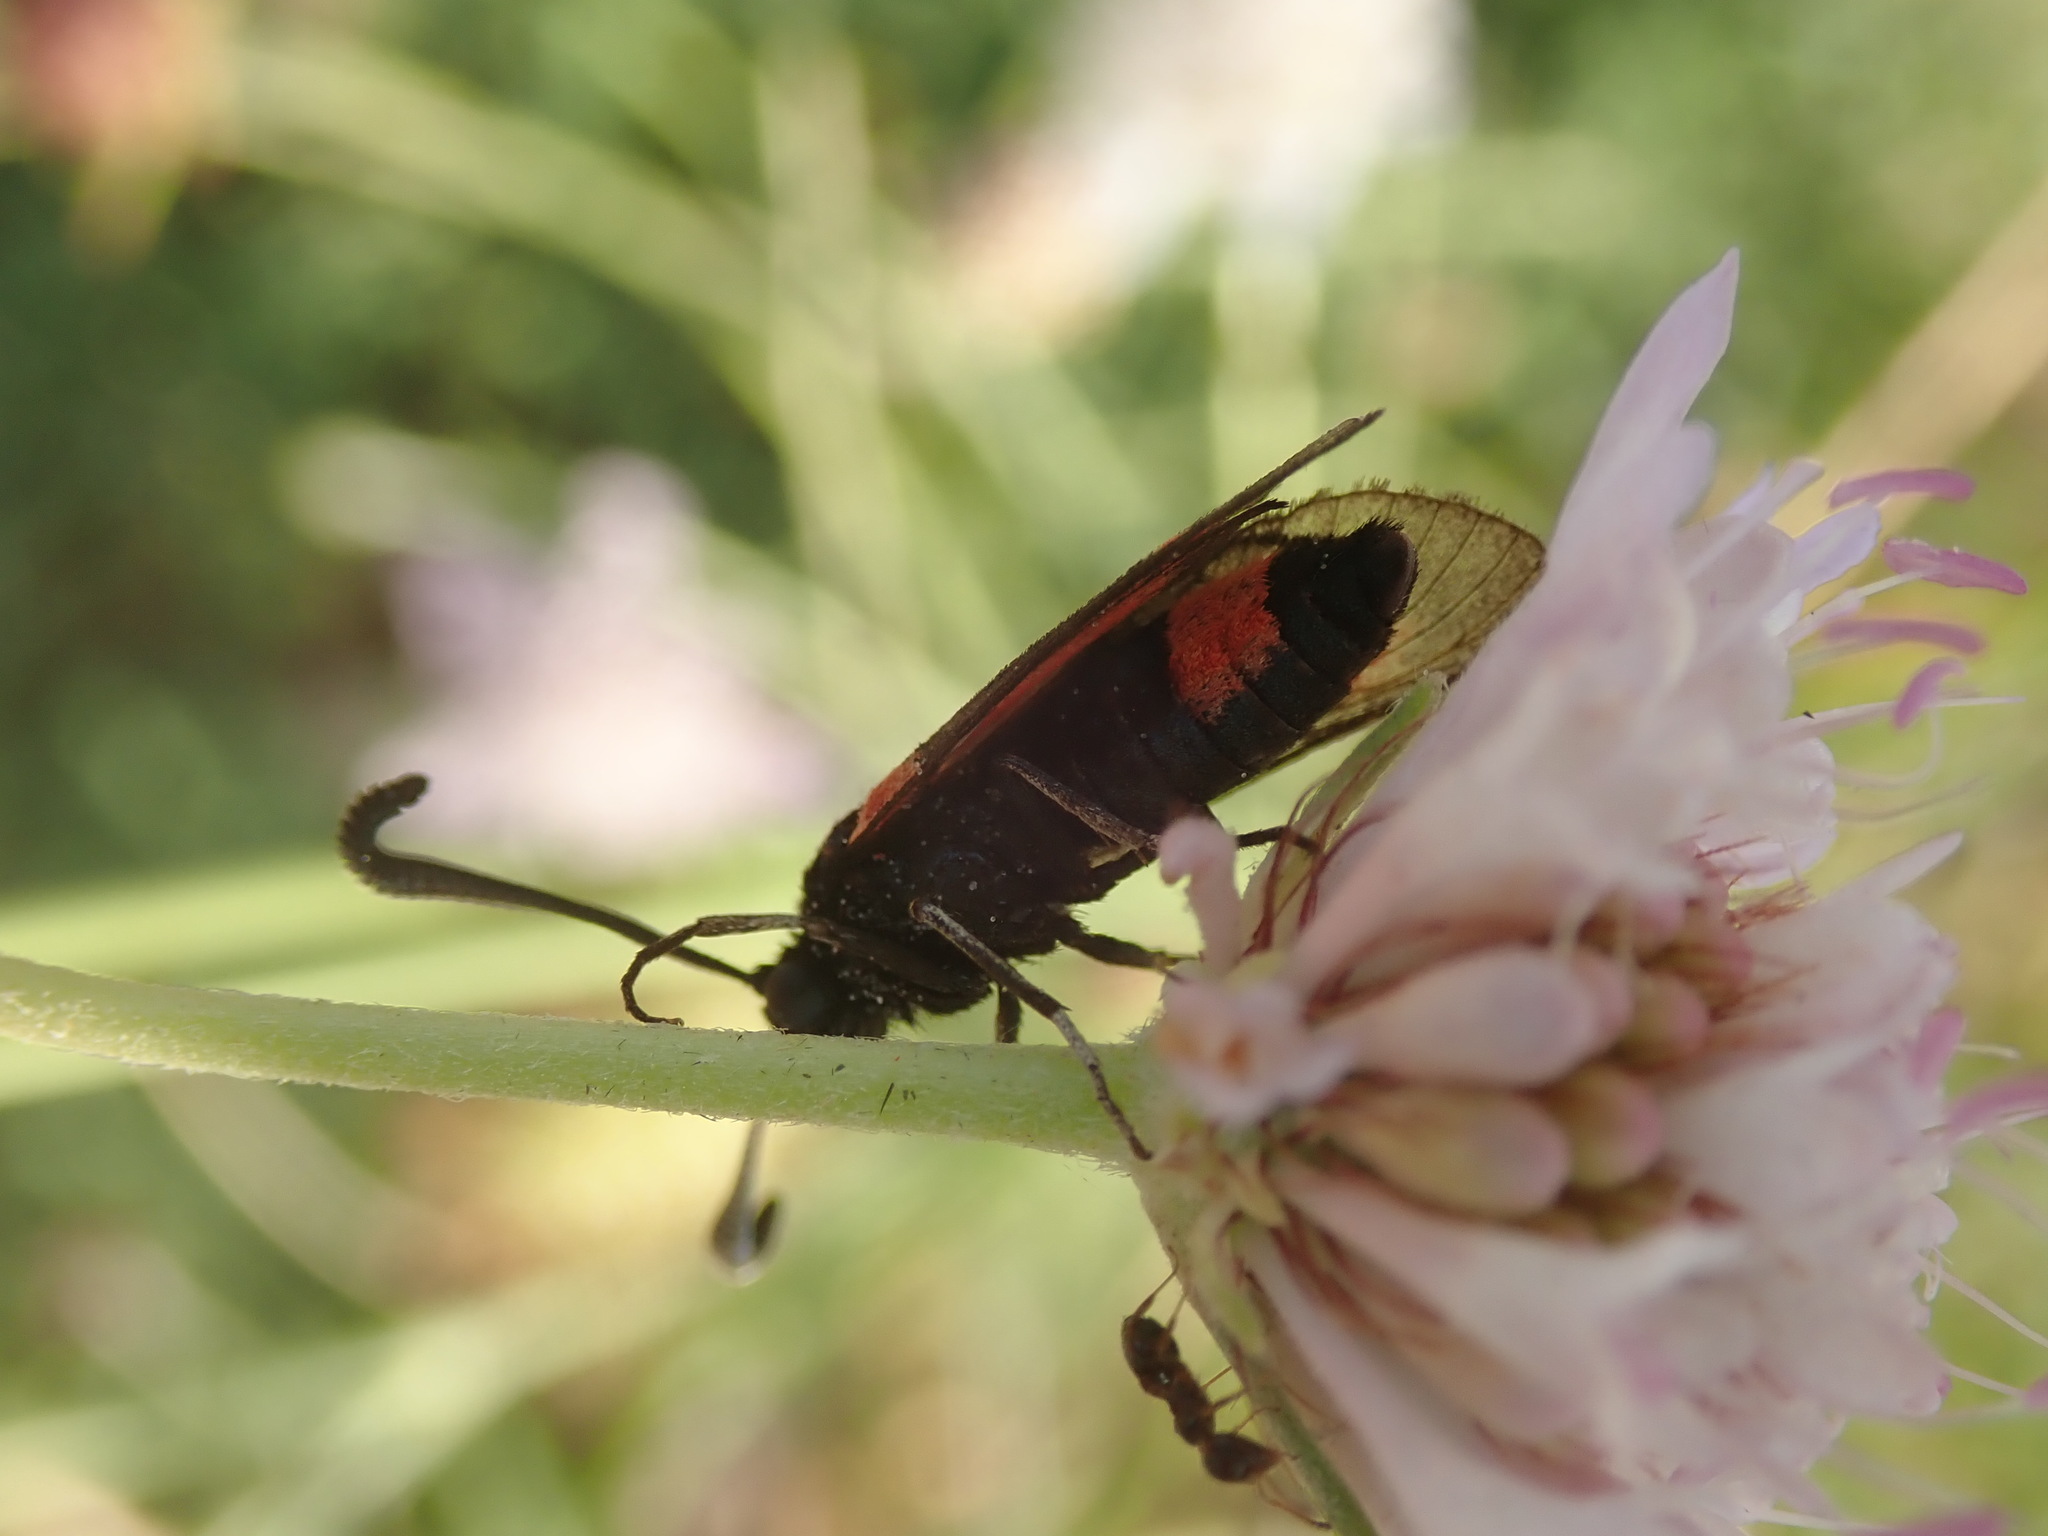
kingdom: Animalia
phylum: Arthropoda
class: Insecta
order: Lepidoptera
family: Zygaenidae
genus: Zygaena
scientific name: Zygaena sarpedon
